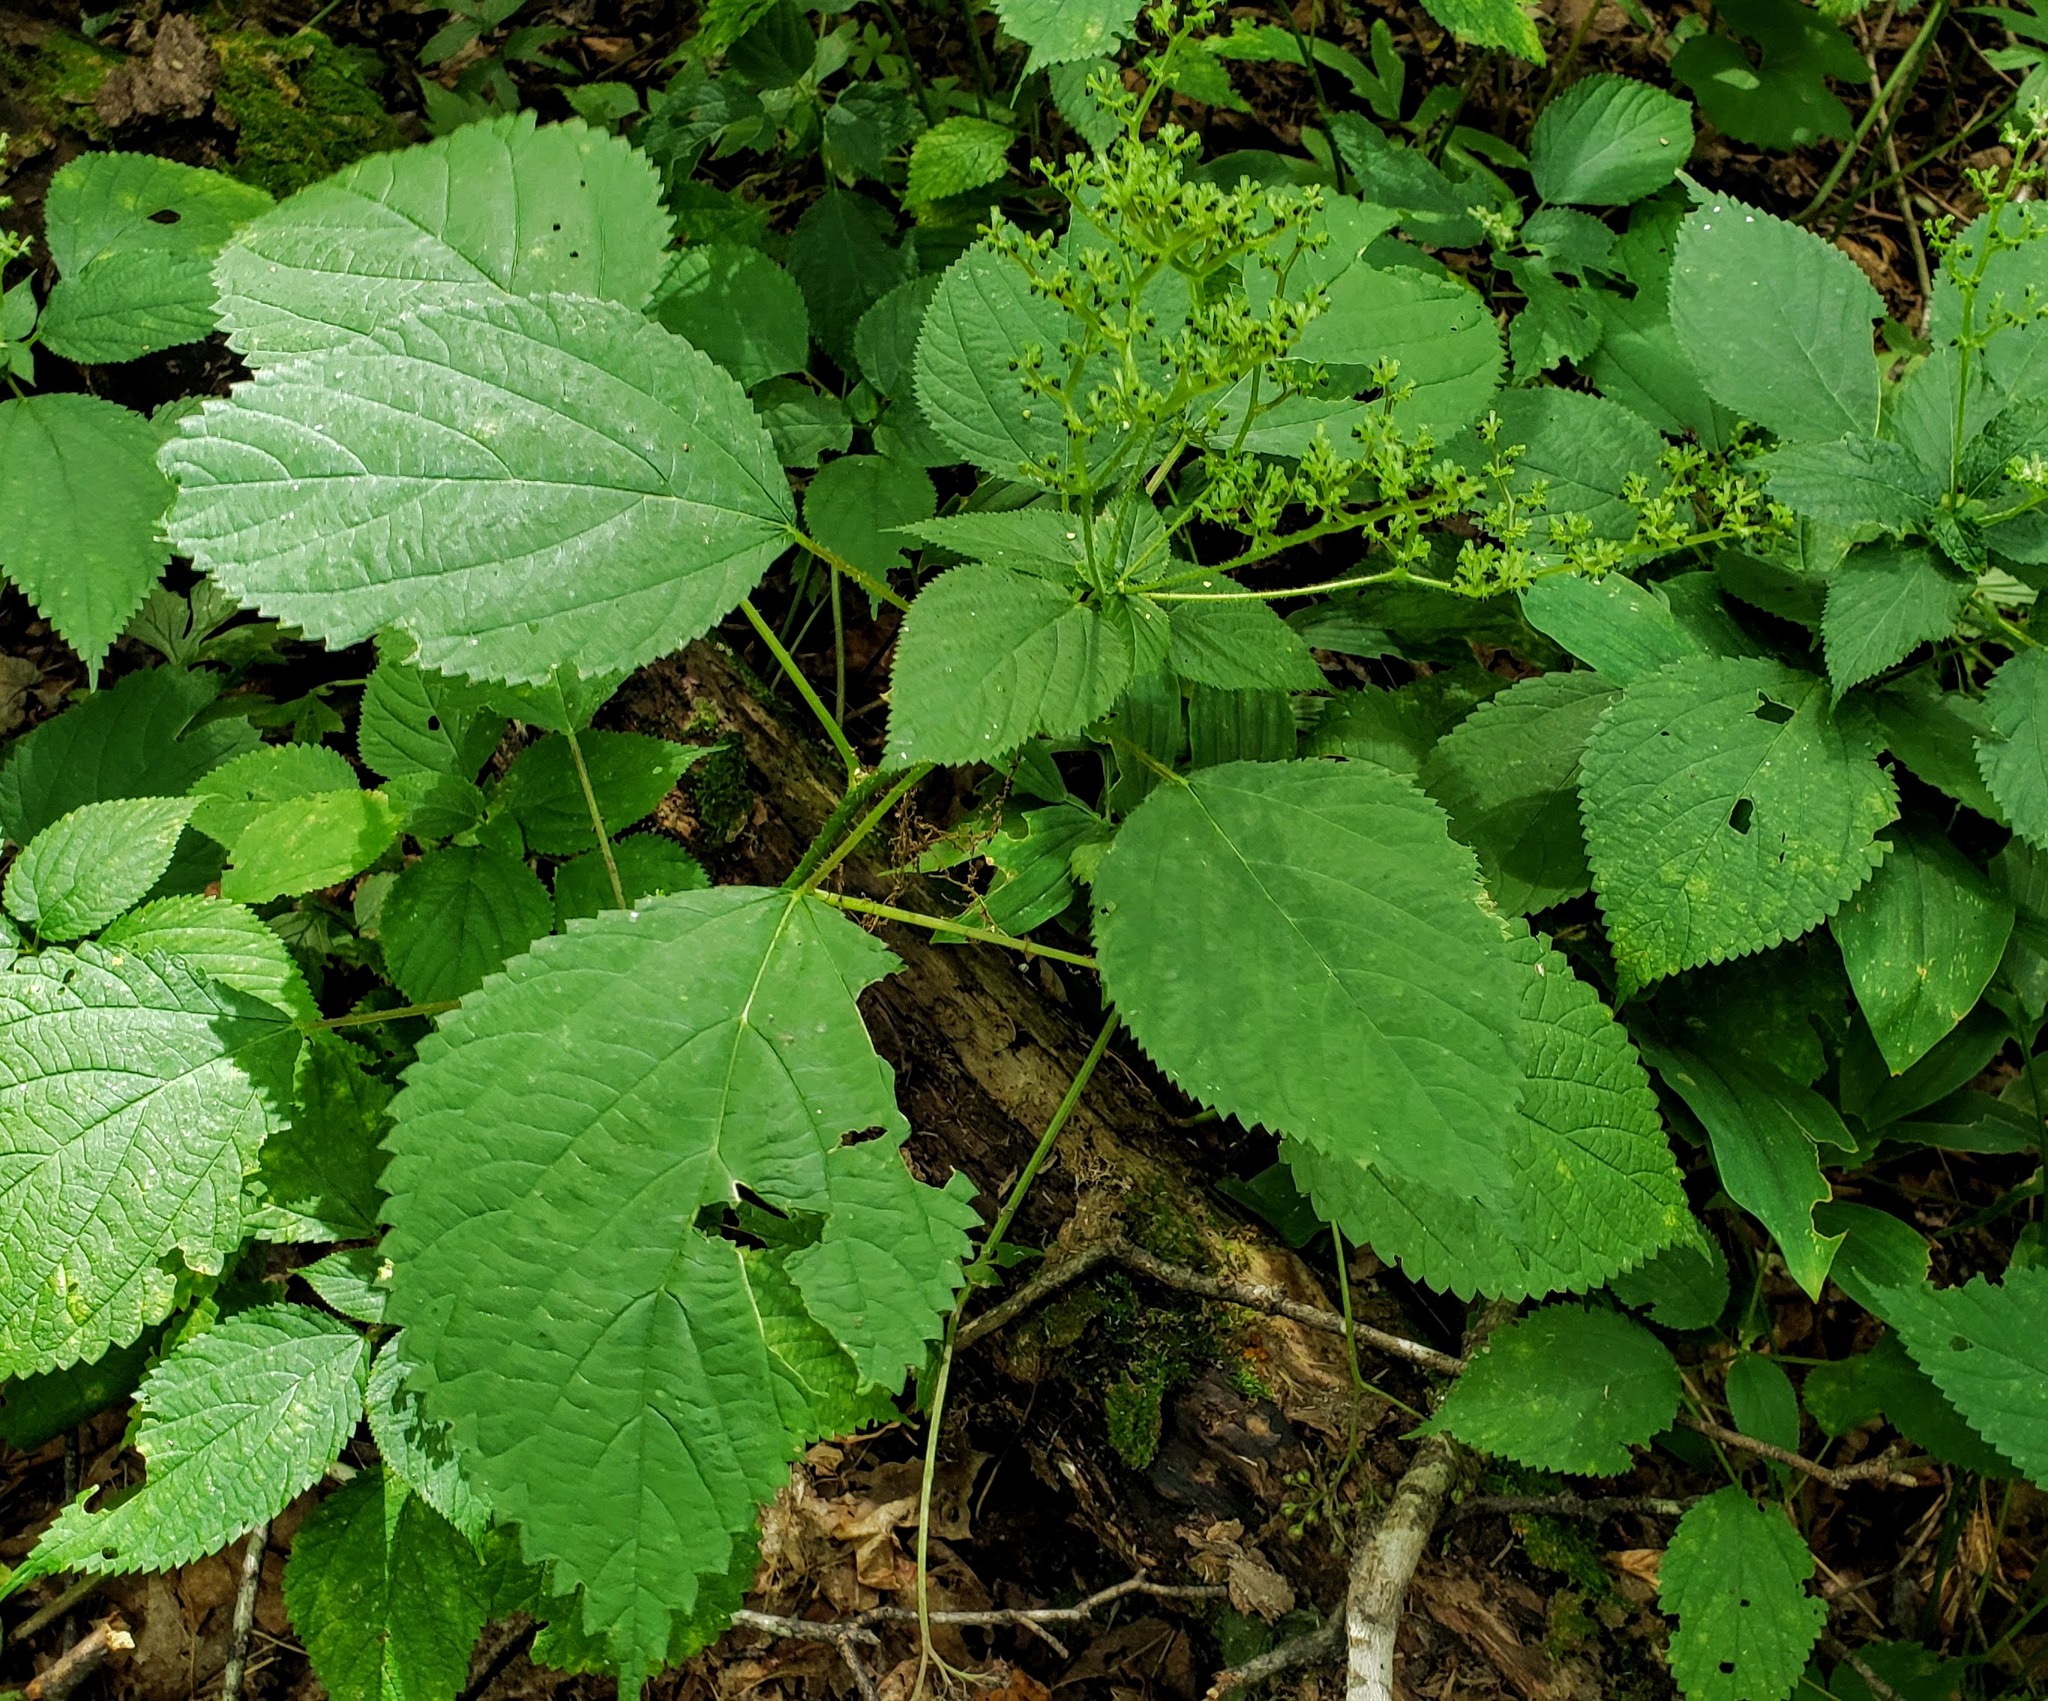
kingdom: Plantae
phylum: Tracheophyta
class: Magnoliopsida
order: Rosales
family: Urticaceae
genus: Laportea
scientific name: Laportea canadensis
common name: Canada nettle
